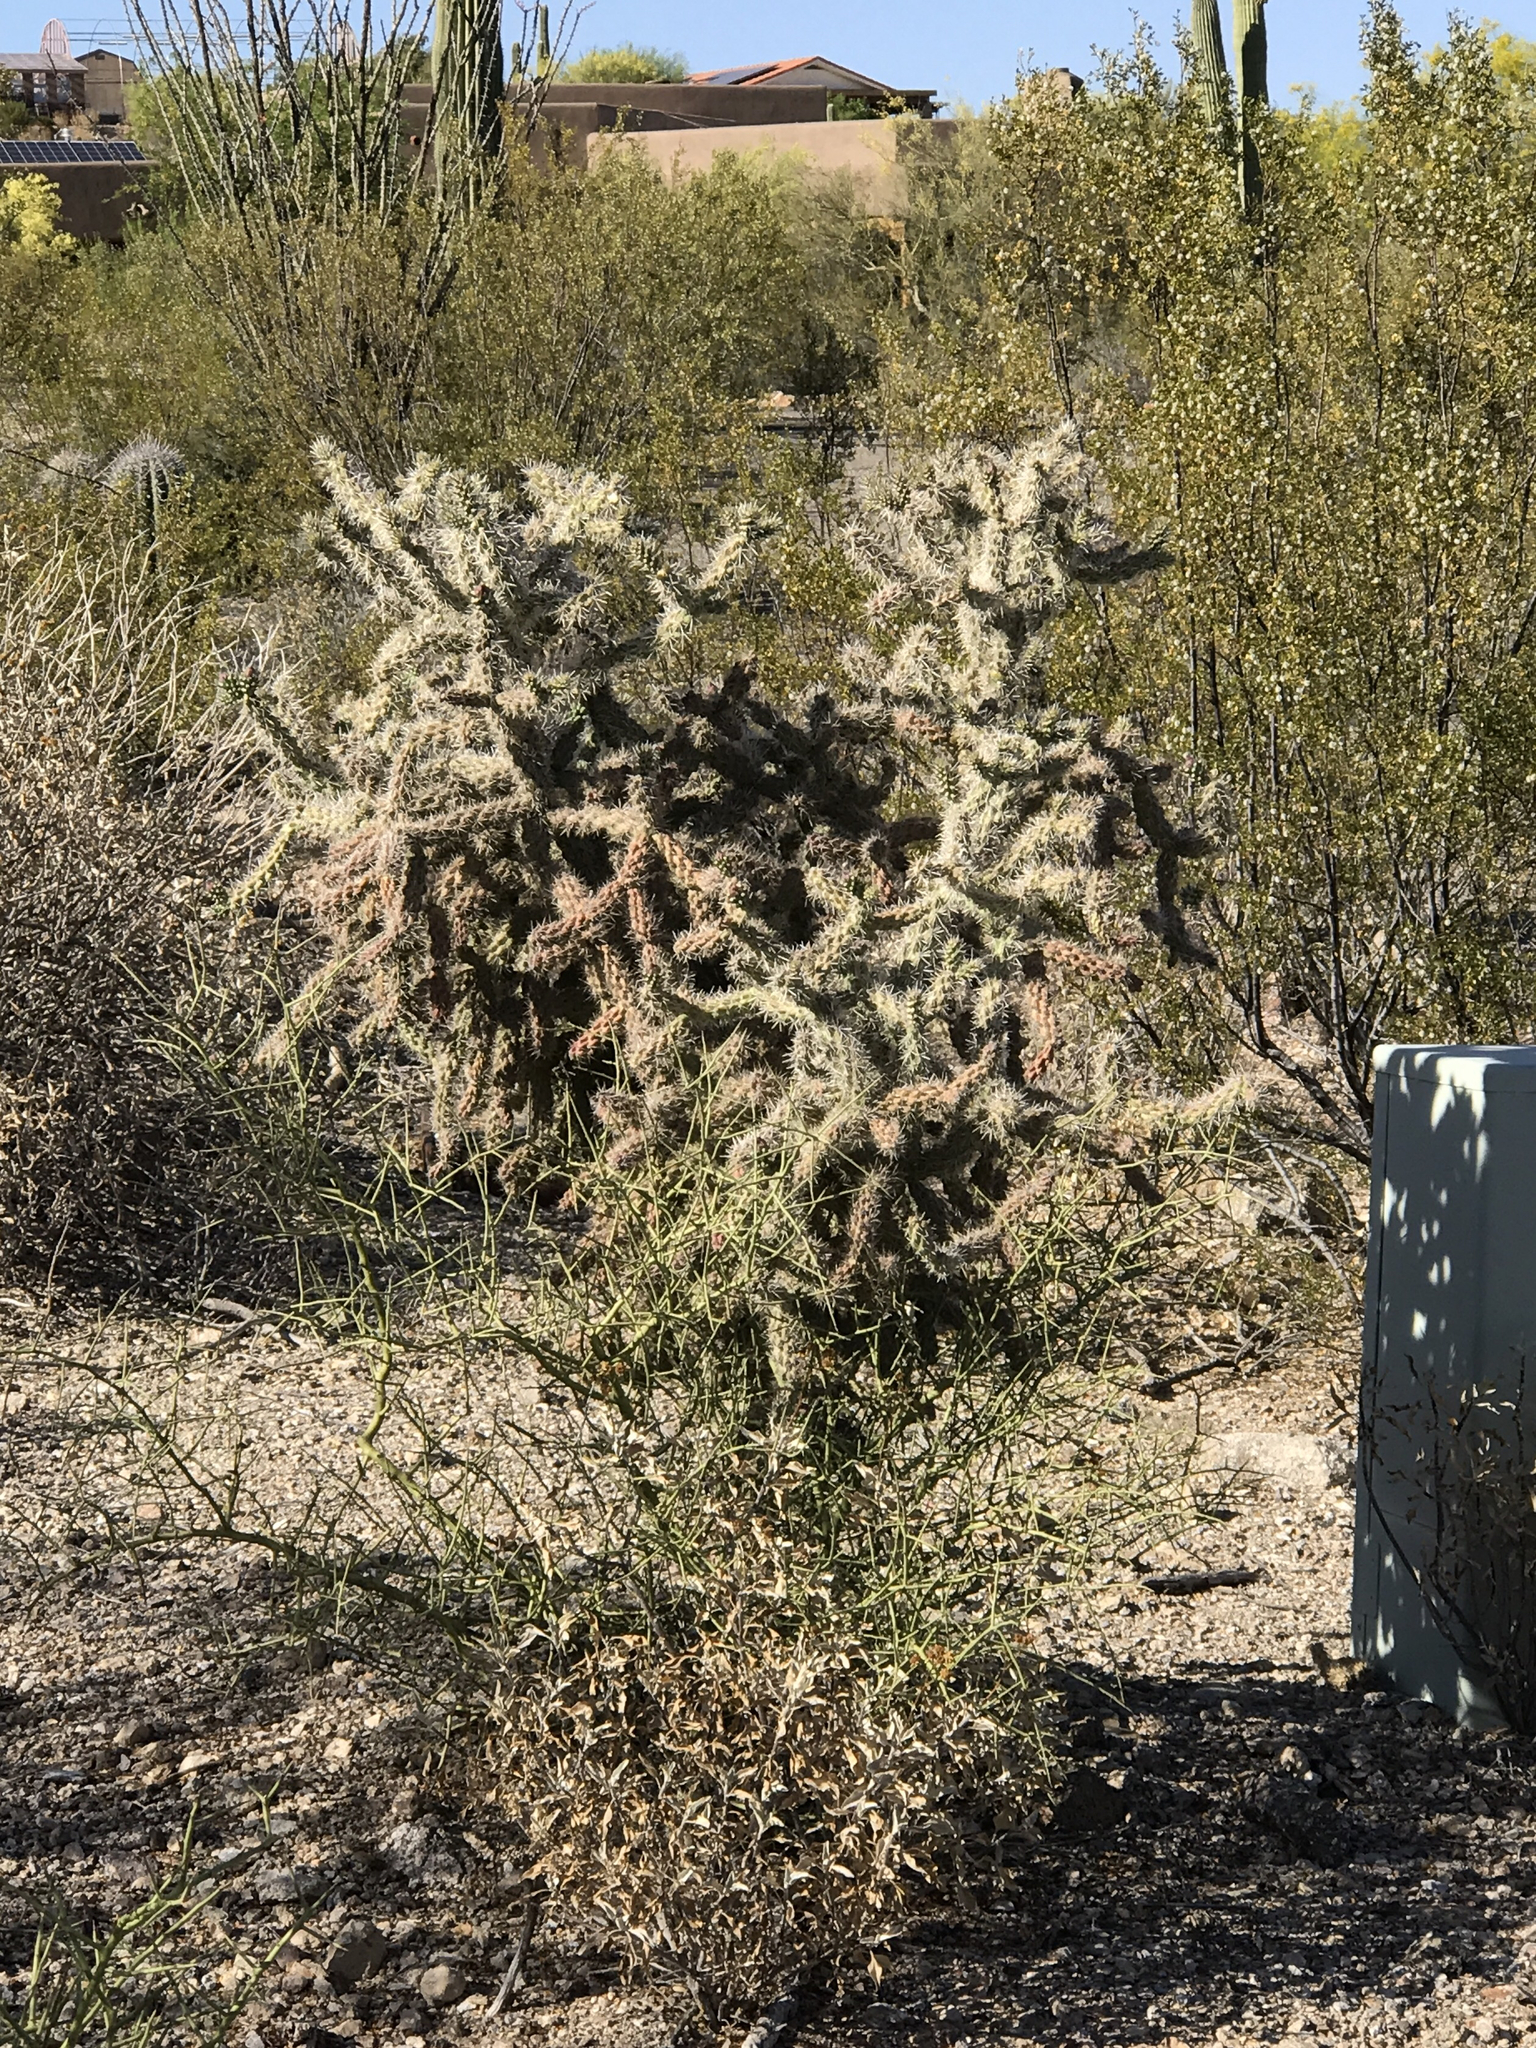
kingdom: Plantae
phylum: Tracheophyta
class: Magnoliopsida
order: Caryophyllales
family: Cactaceae
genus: Cylindropuntia
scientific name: Cylindropuntia acanthocarpa
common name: Buckhorn cholla
